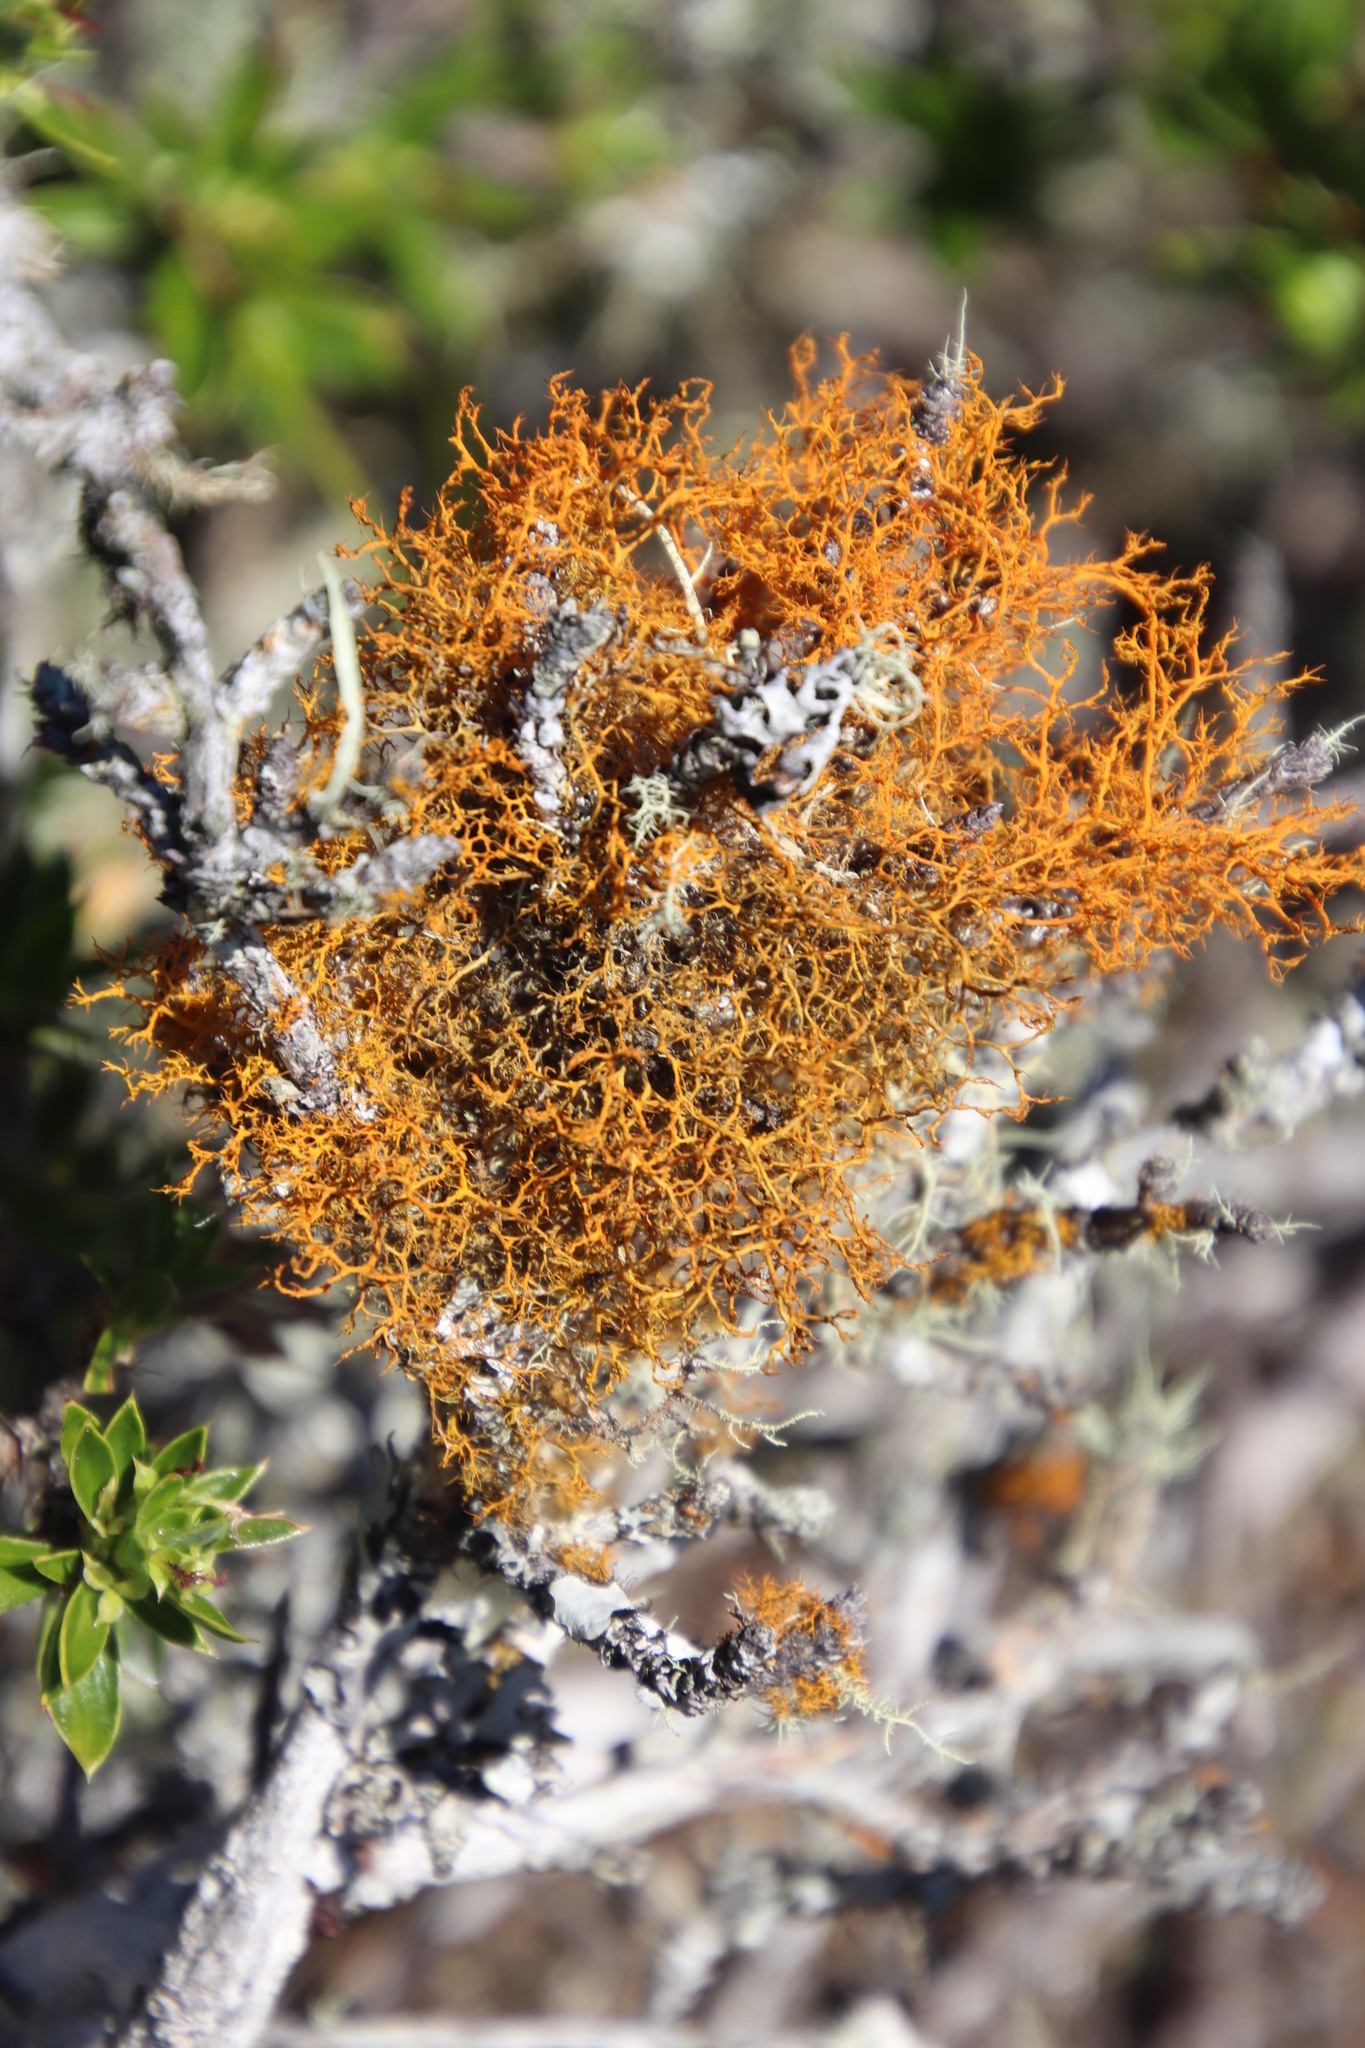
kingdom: Fungi
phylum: Ascomycota
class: Lecanoromycetes
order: Teloschistales
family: Teloschistaceae
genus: Teloschistes
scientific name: Teloschistes flavicans
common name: Golden hair-lichen
